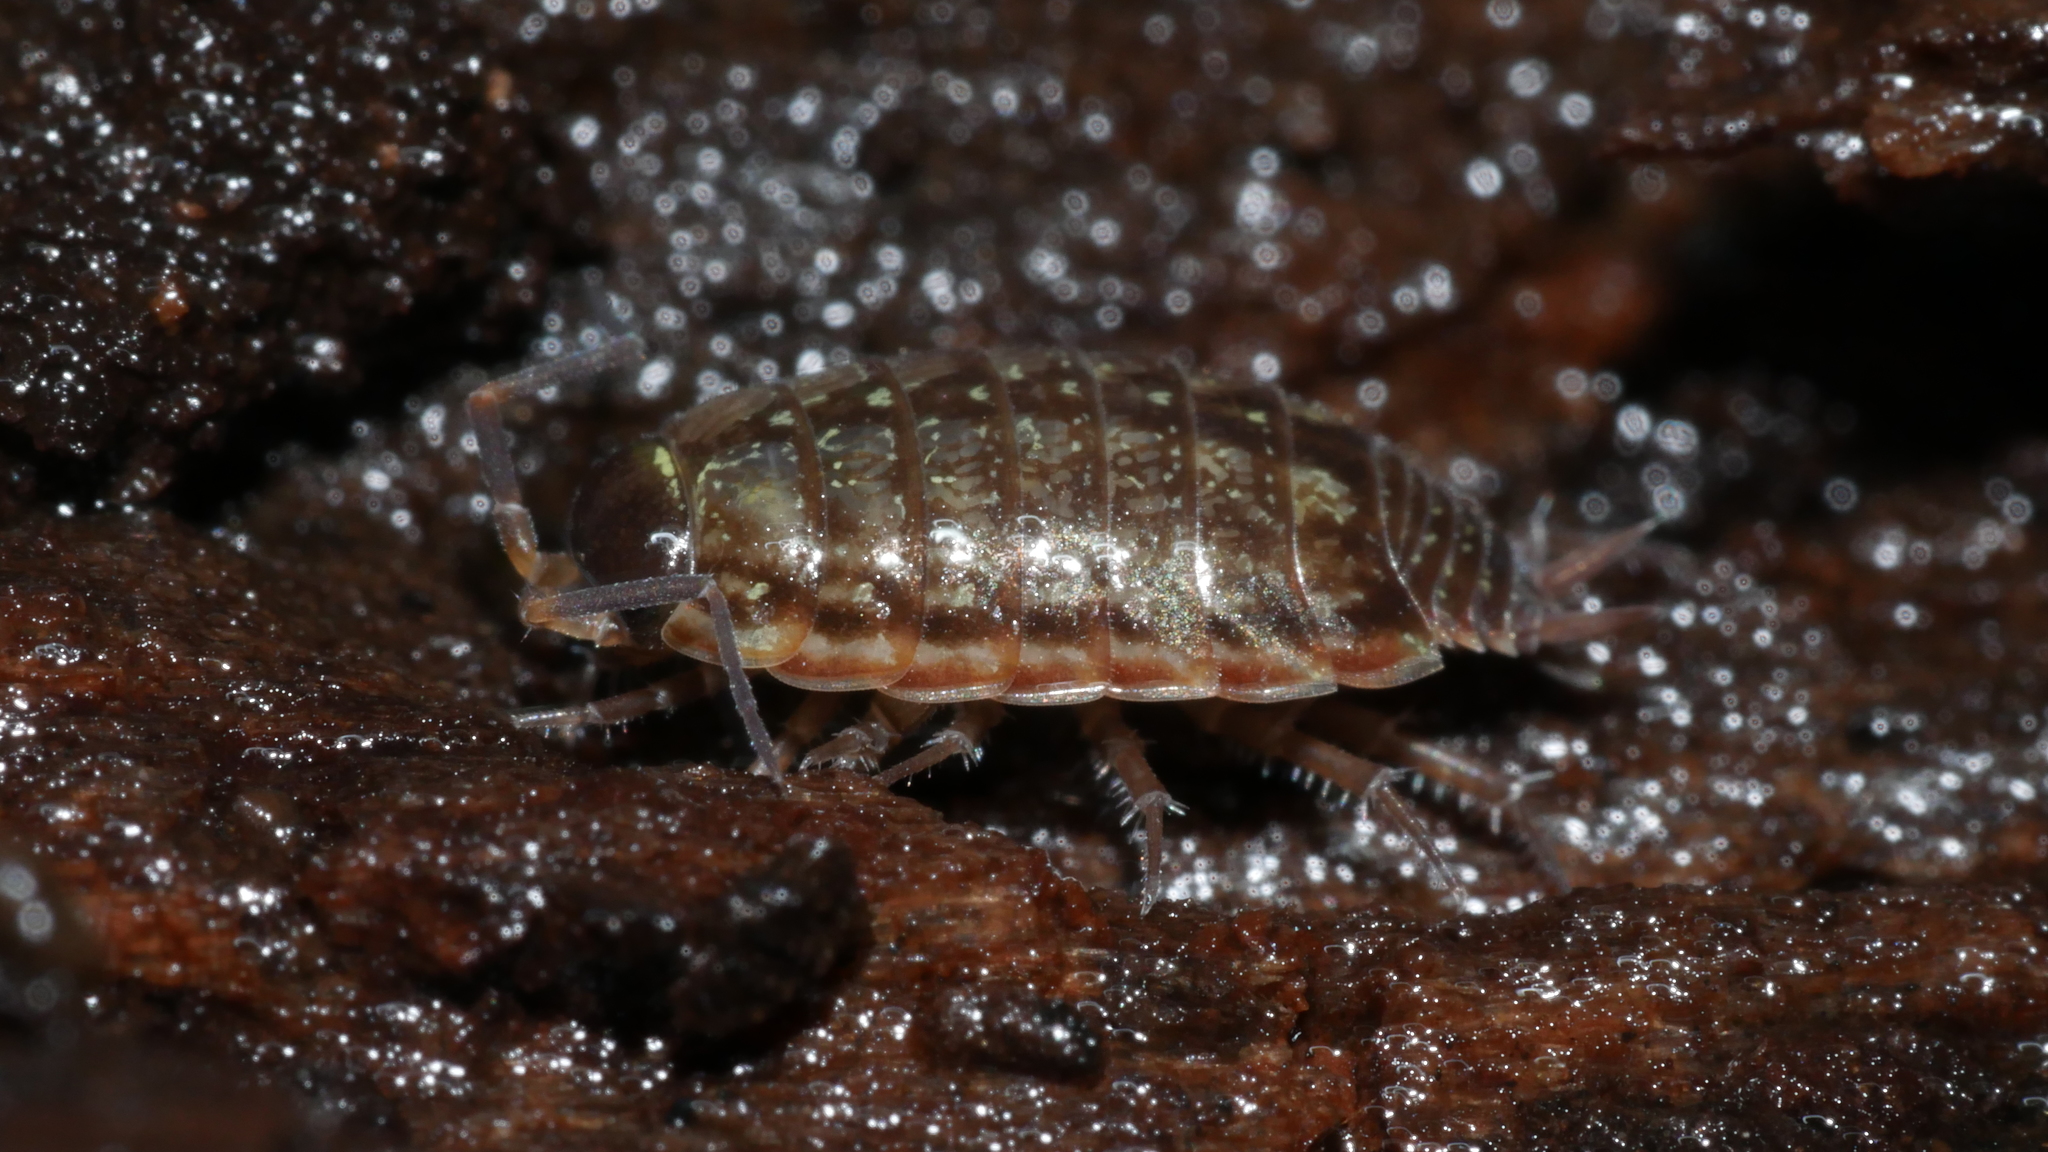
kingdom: Animalia
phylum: Arthropoda
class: Malacostraca
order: Isopoda
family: Philosciidae
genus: Philoscia
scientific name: Philoscia muscorum
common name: Common striped woodlouse
